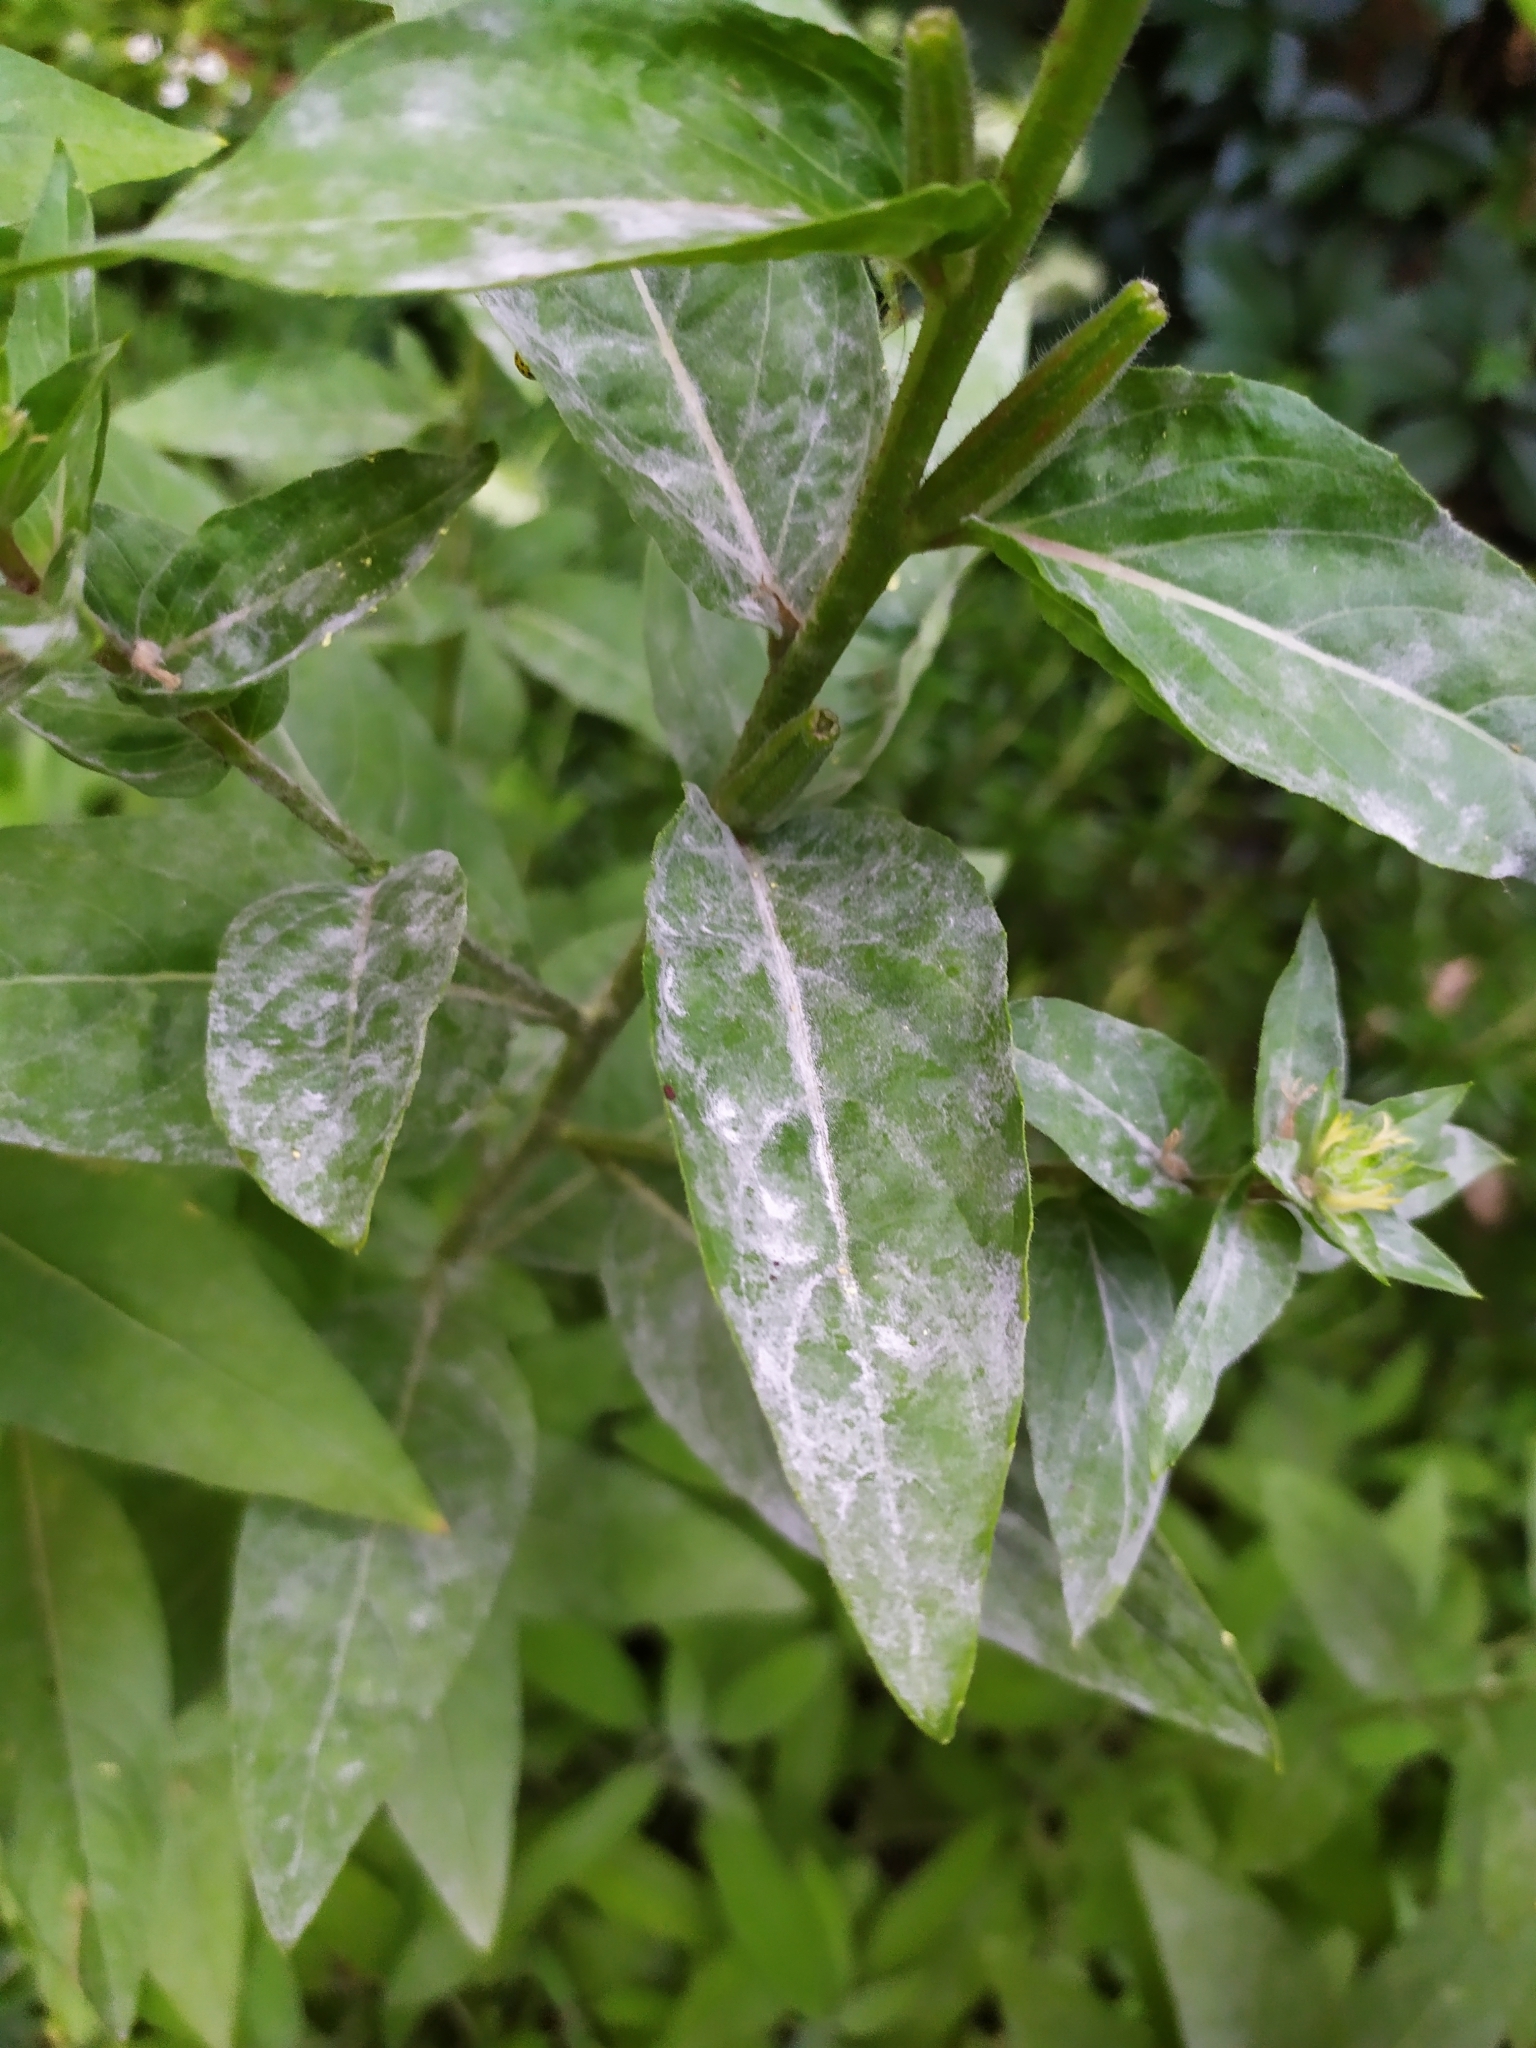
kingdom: Fungi
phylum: Ascomycota
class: Leotiomycetes
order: Helotiales
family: Erysiphaceae
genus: Erysiphe
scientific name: Erysiphe howeana
